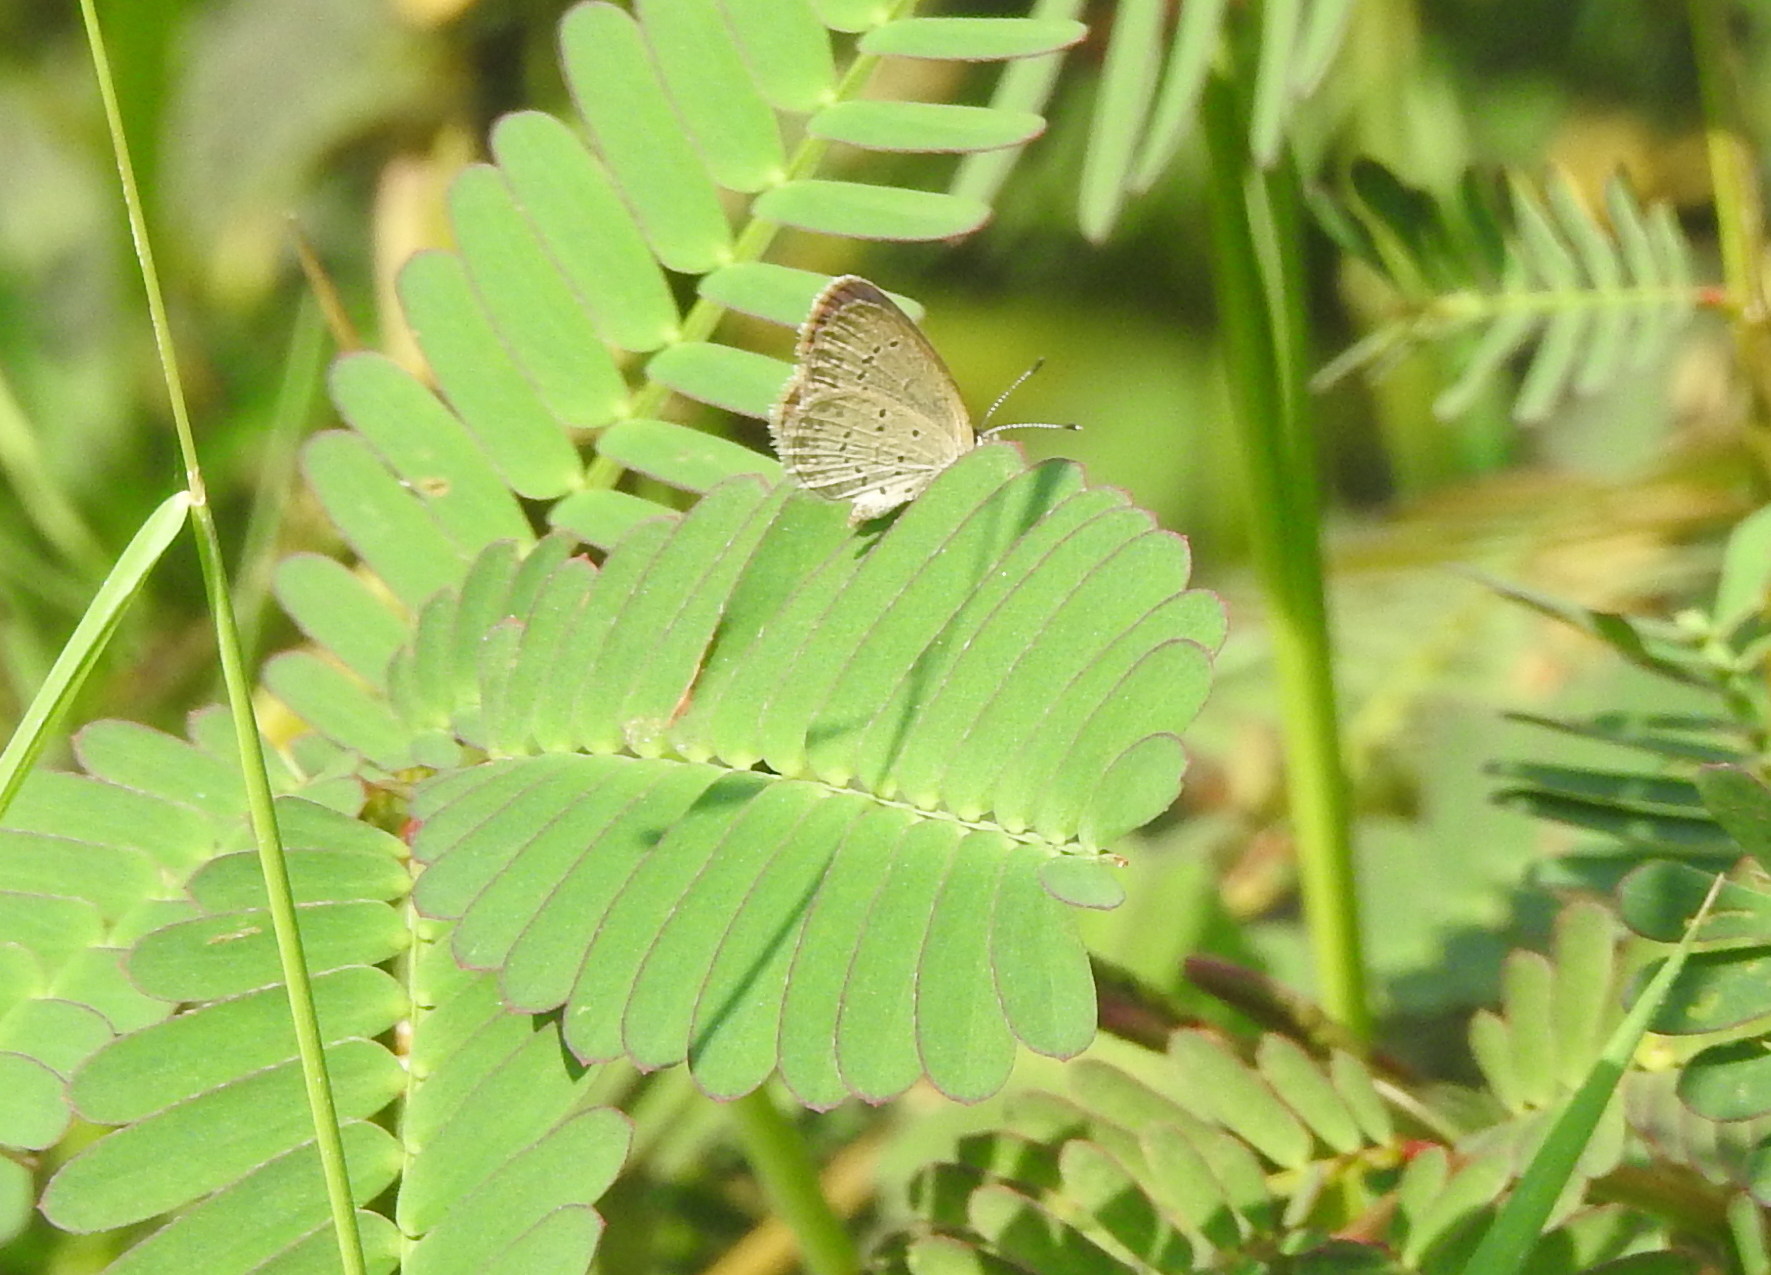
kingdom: Animalia
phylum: Arthropoda
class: Insecta
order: Lepidoptera
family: Lycaenidae
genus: Zizina
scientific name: Zizina otis
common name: Lesser grass blue
